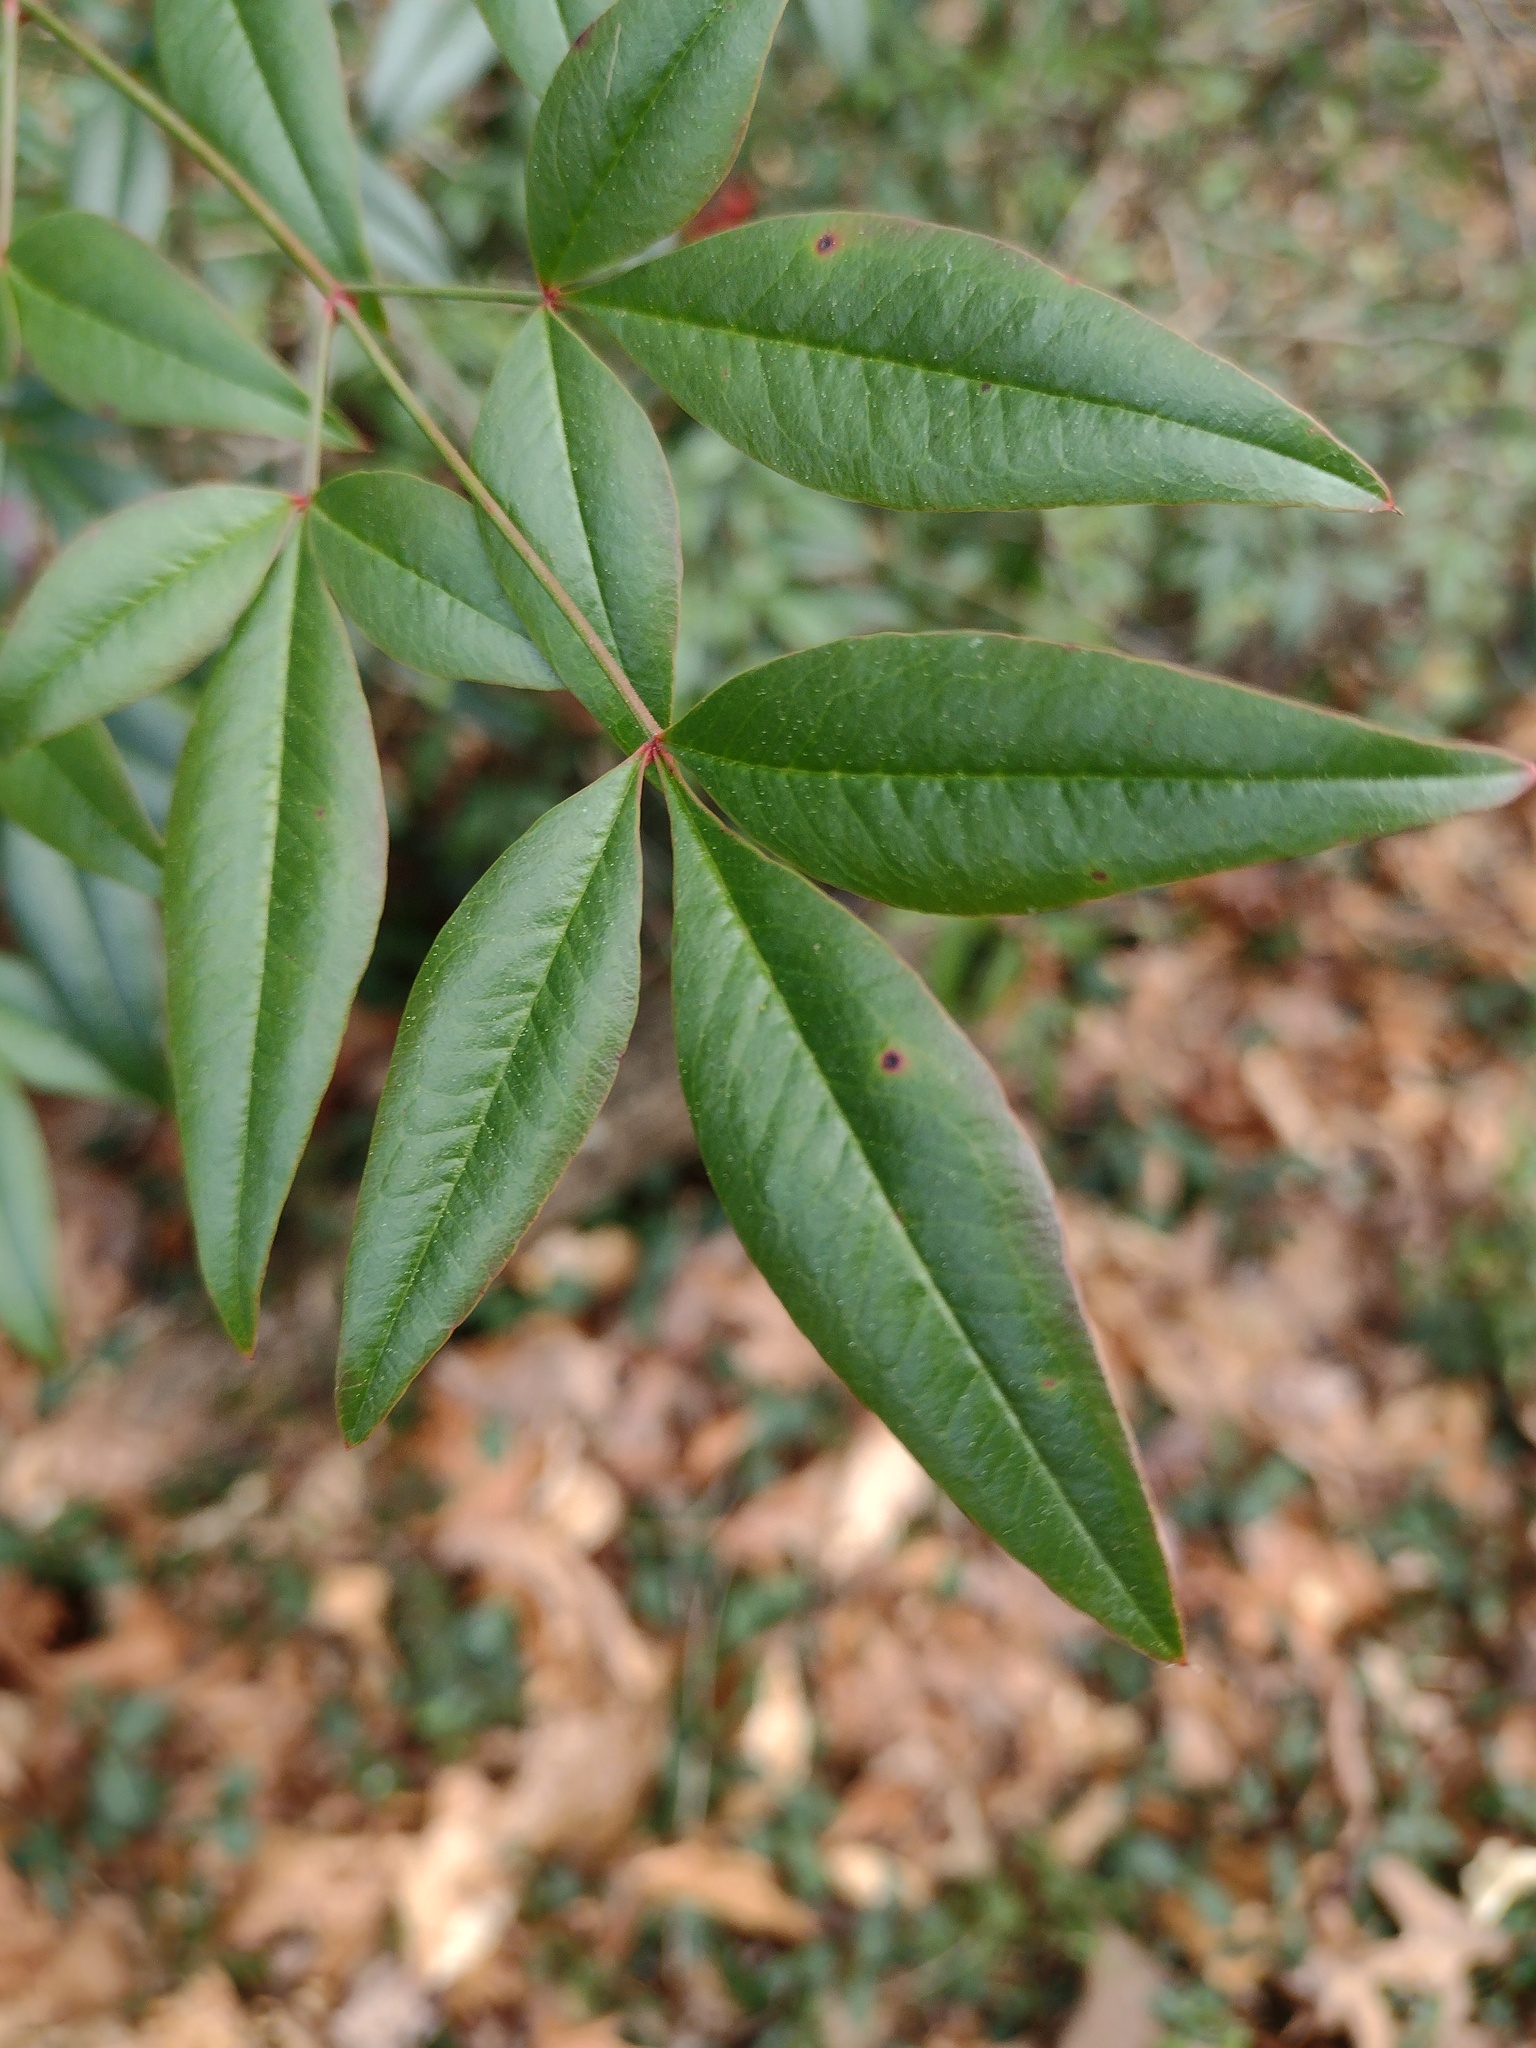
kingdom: Plantae
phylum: Tracheophyta
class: Magnoliopsida
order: Ranunculales
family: Berberidaceae
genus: Nandina
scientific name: Nandina domestica
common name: Sacred bamboo
